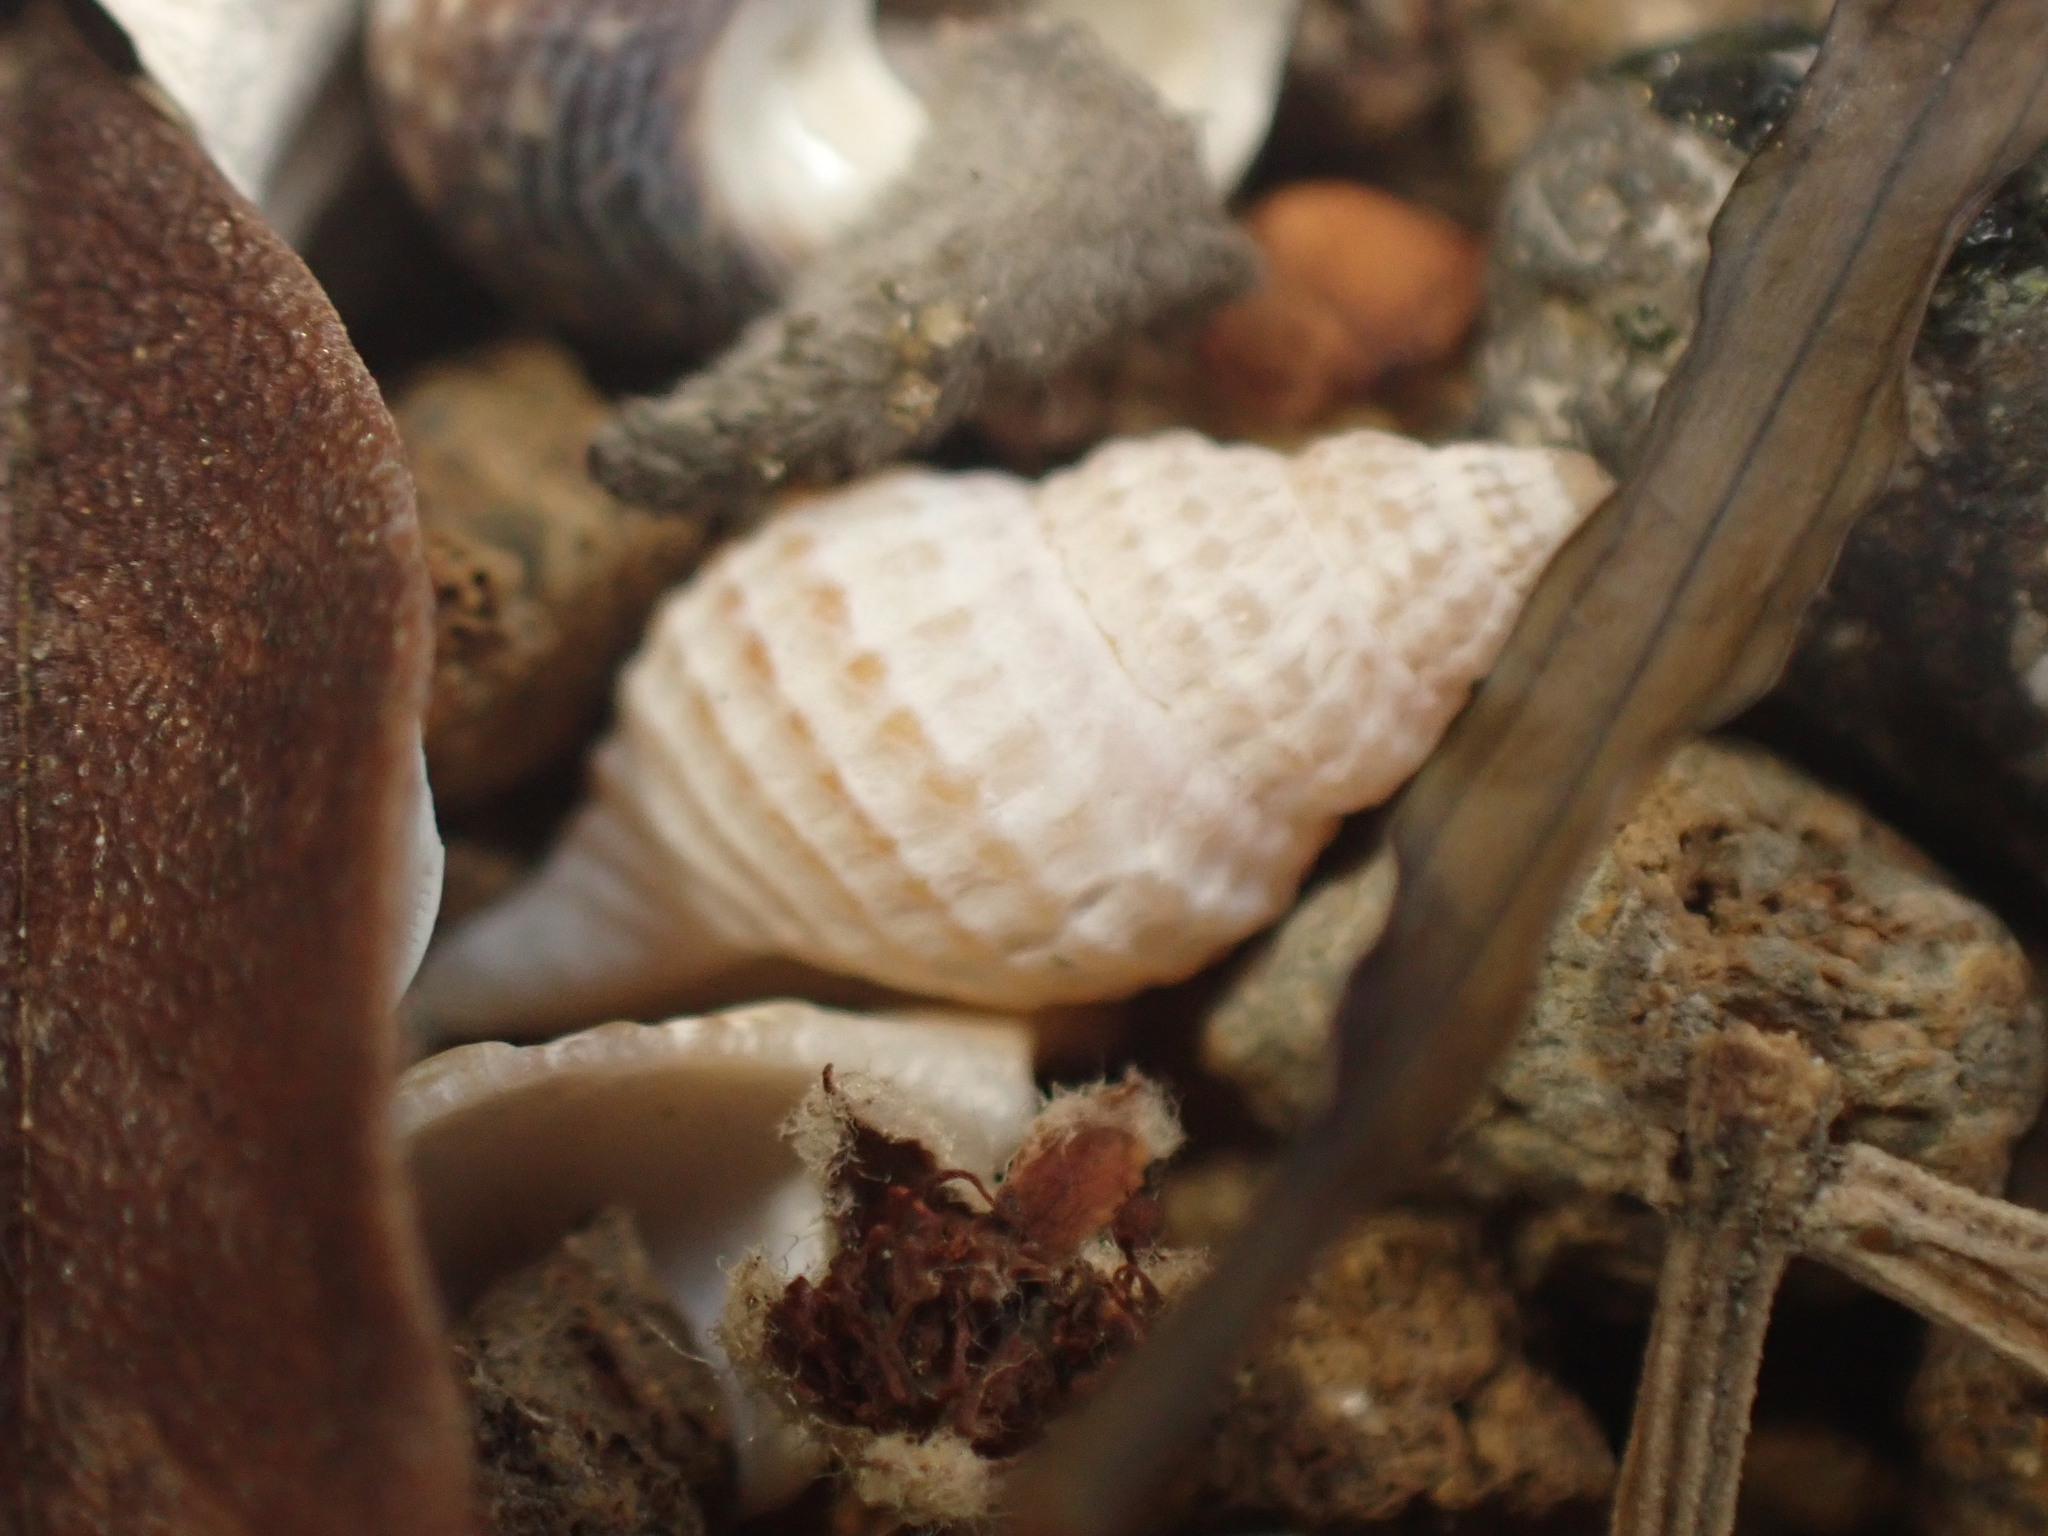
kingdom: Animalia
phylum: Mollusca
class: Gastropoda
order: Neogastropoda
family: Muricidae
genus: Xymene
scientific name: Xymene plebeius
